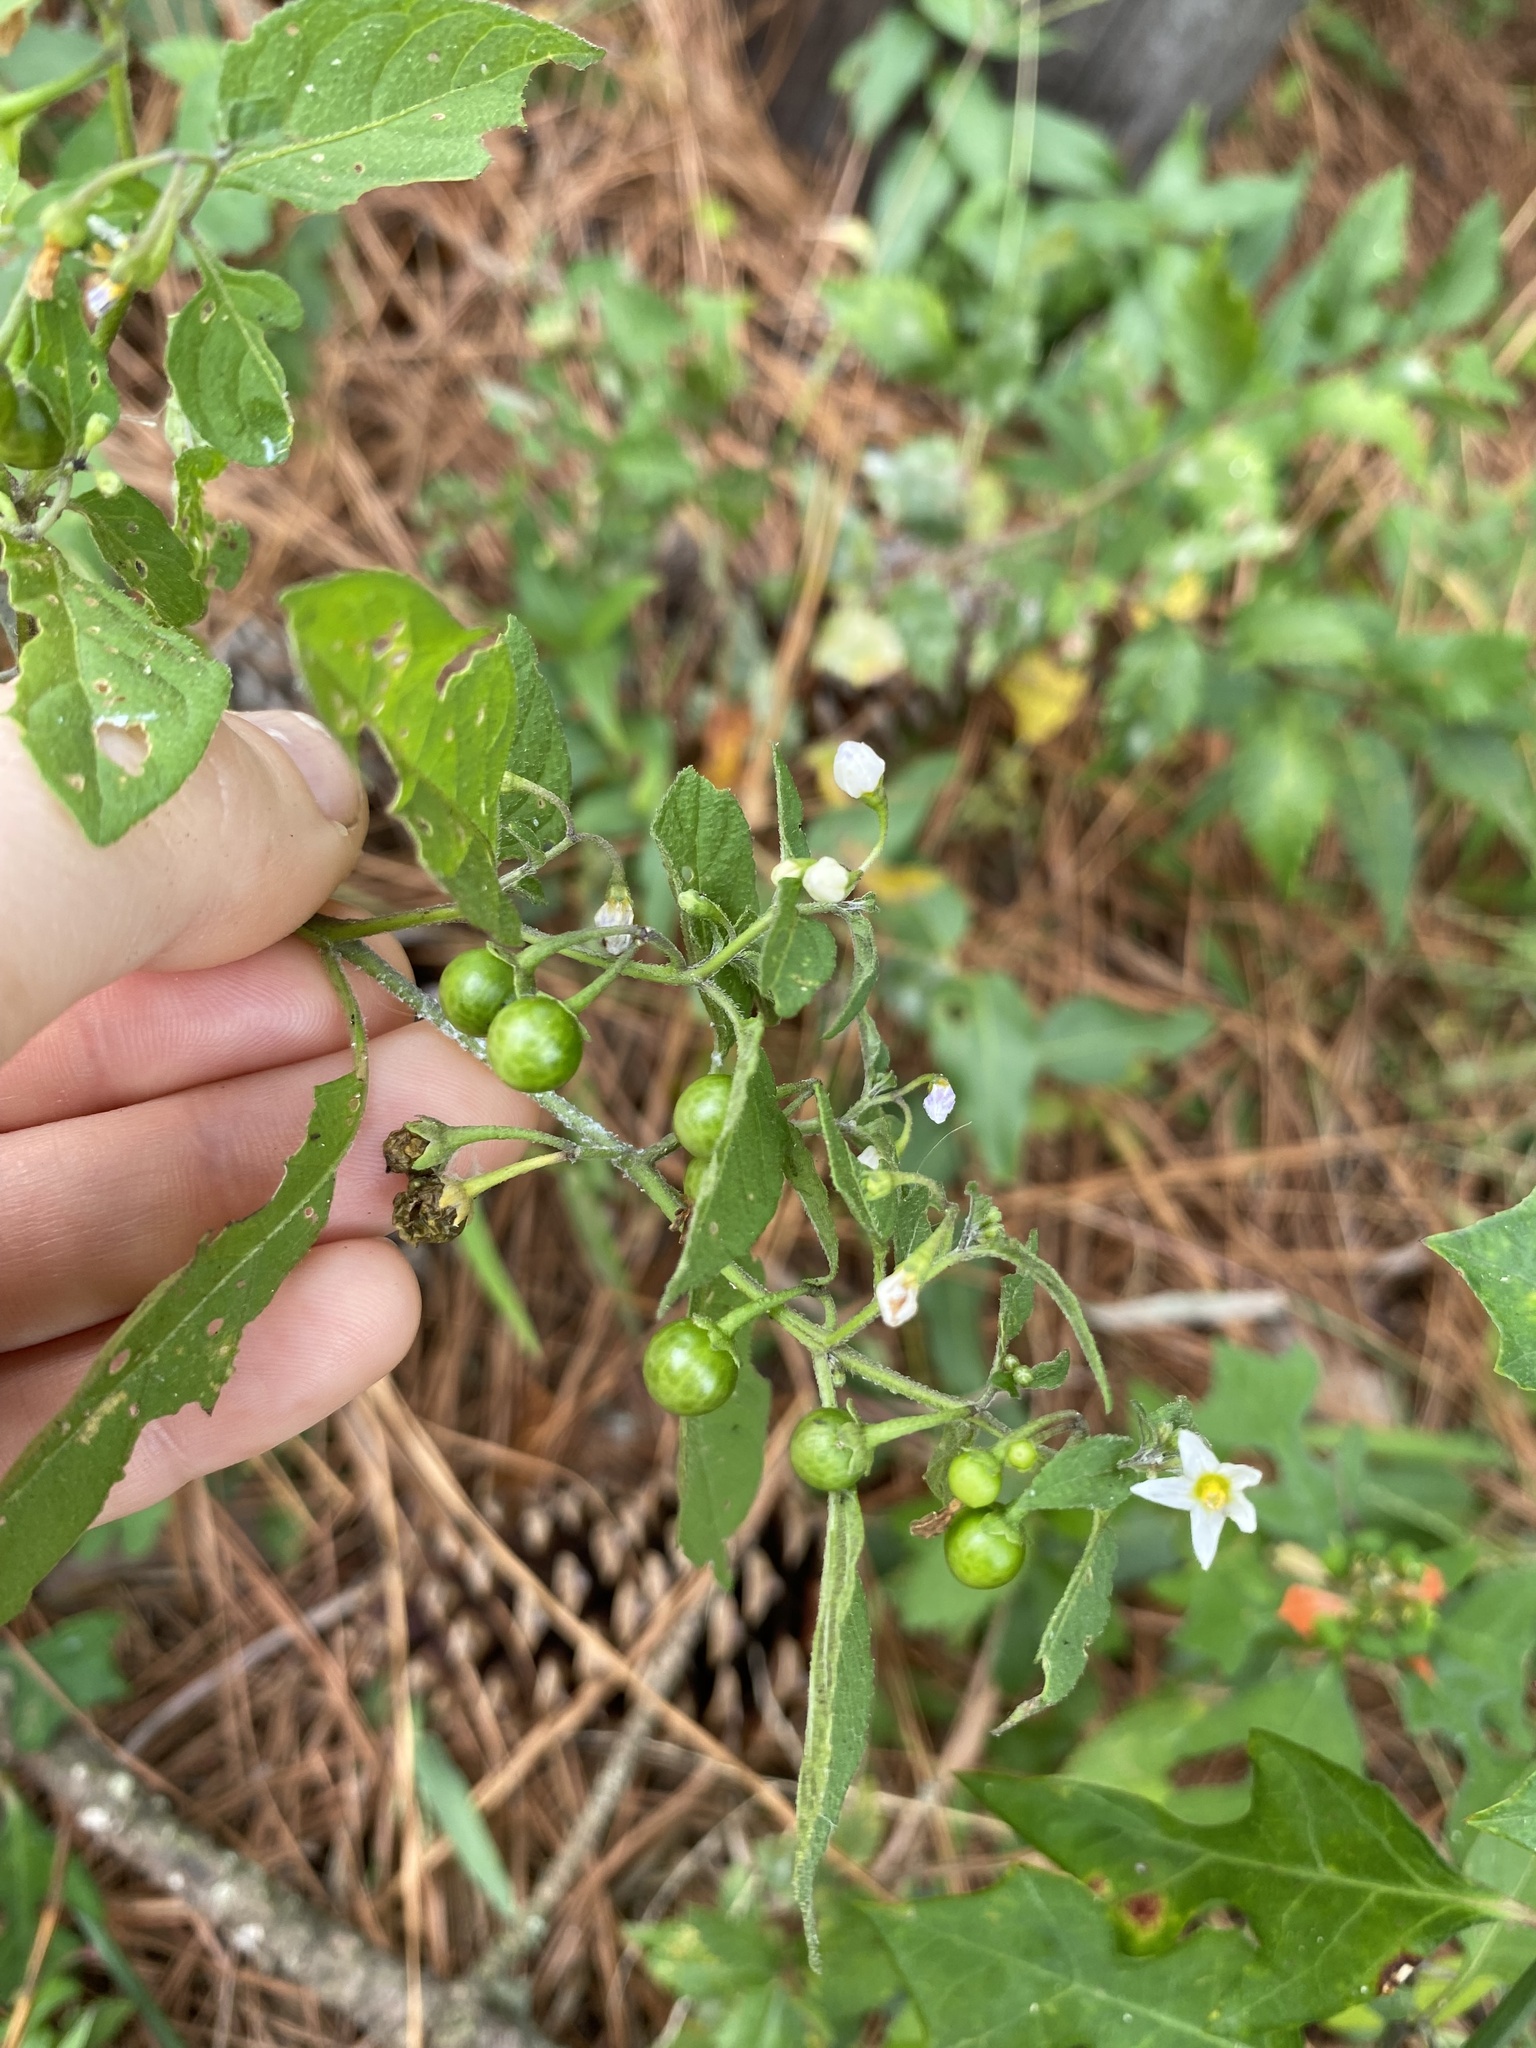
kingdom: Plantae
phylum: Tracheophyta
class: Magnoliopsida
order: Solanales
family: Solanaceae
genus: Solanum
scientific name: Solanum emulans
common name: Eastern black nightshade
